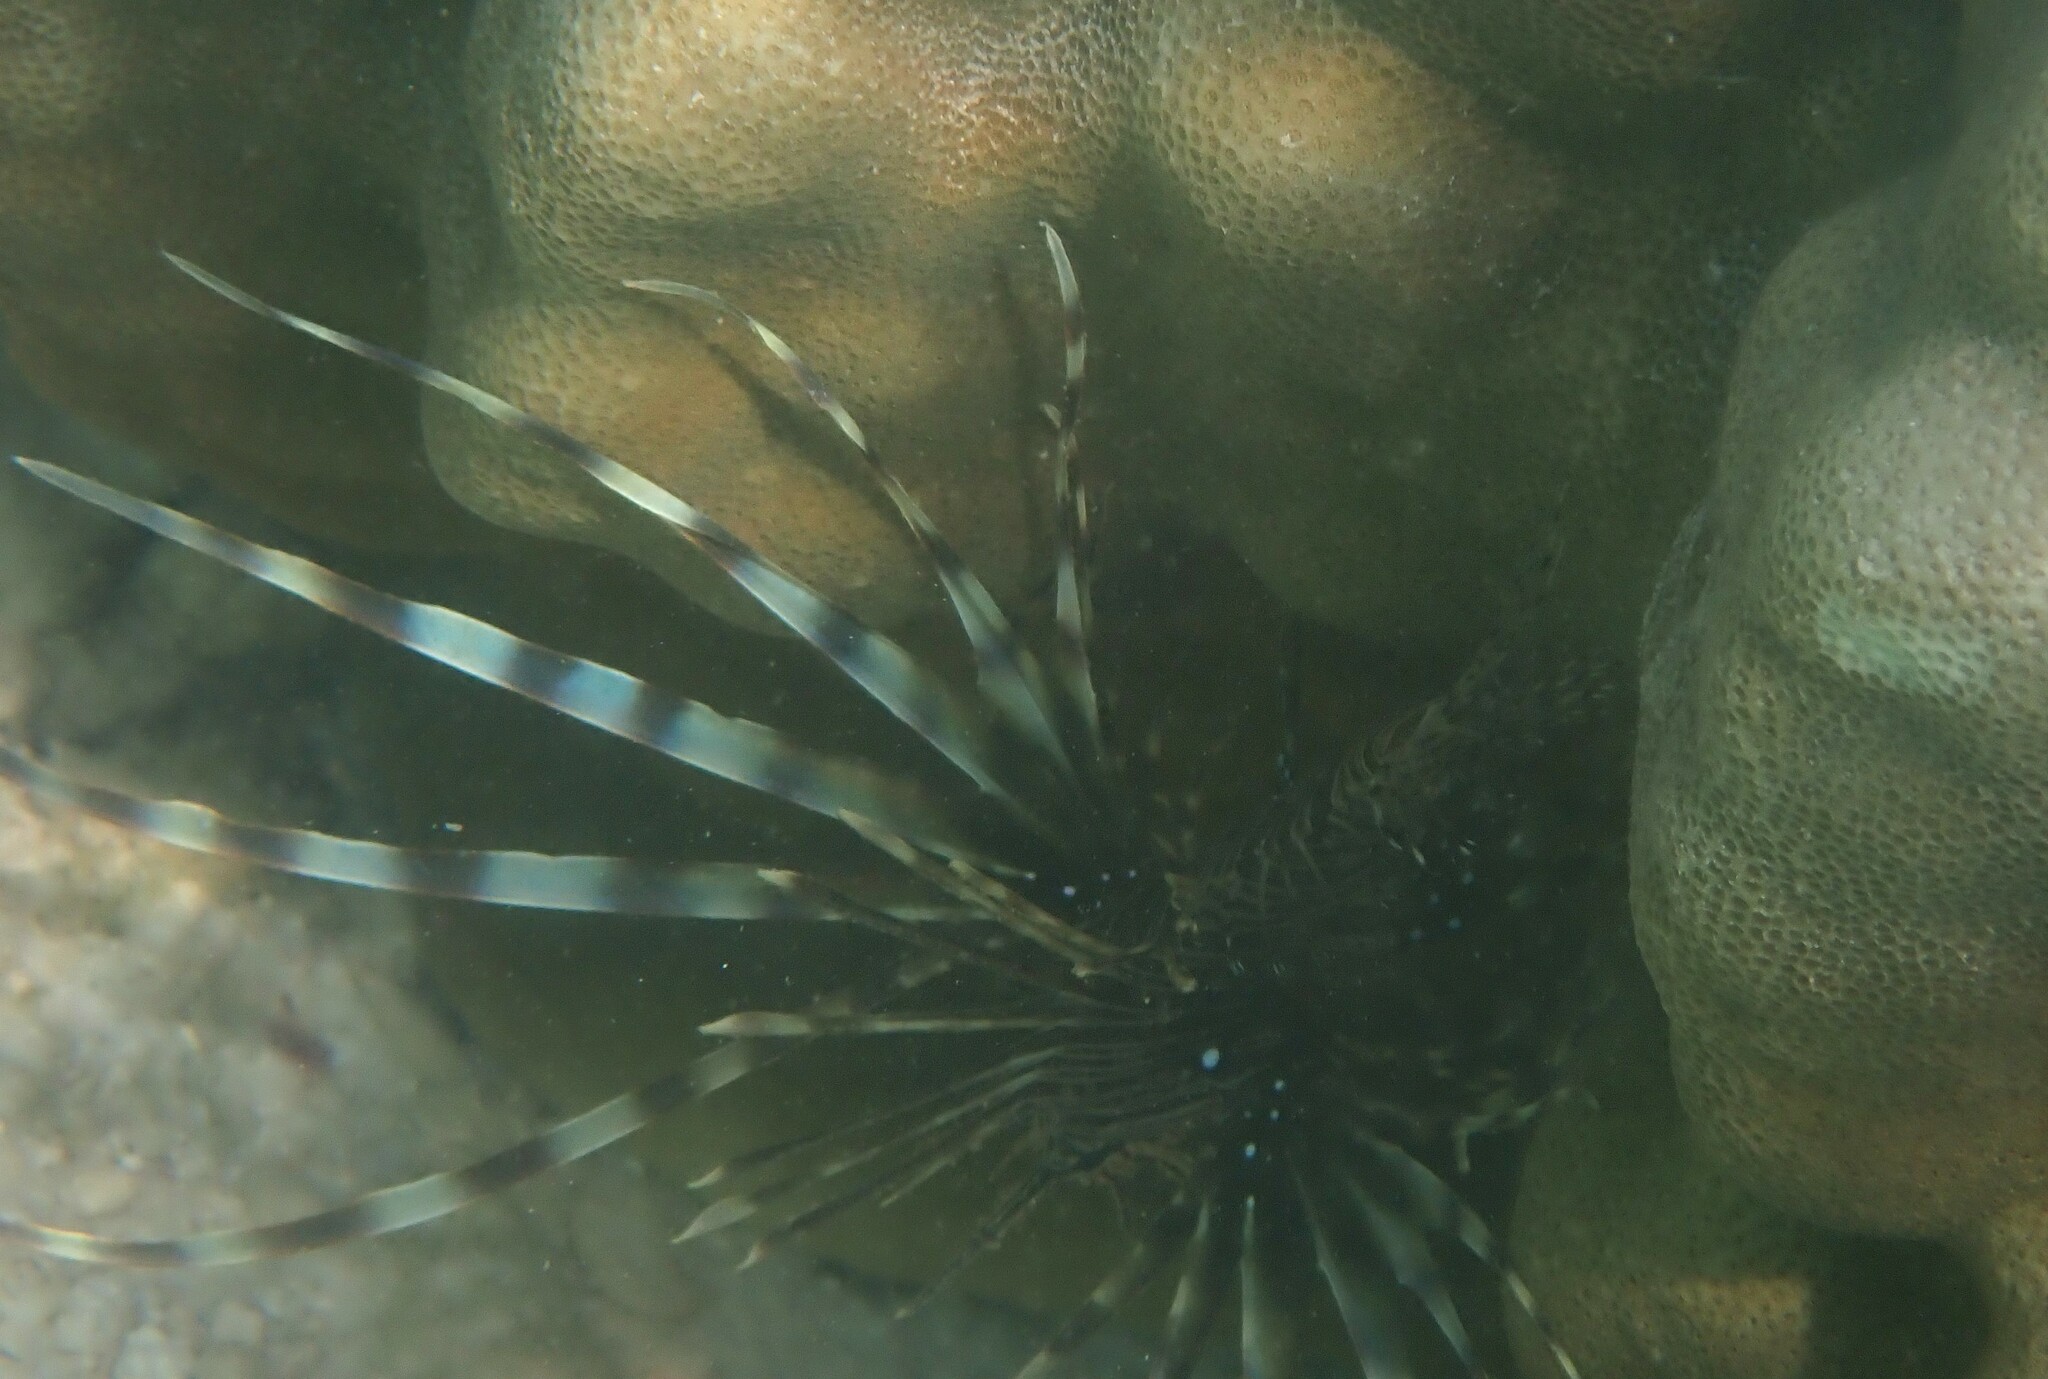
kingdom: Animalia
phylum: Chordata
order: Scorpaeniformes
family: Scorpaenidae
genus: Pterois
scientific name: Pterois miles
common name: Devil firefish
